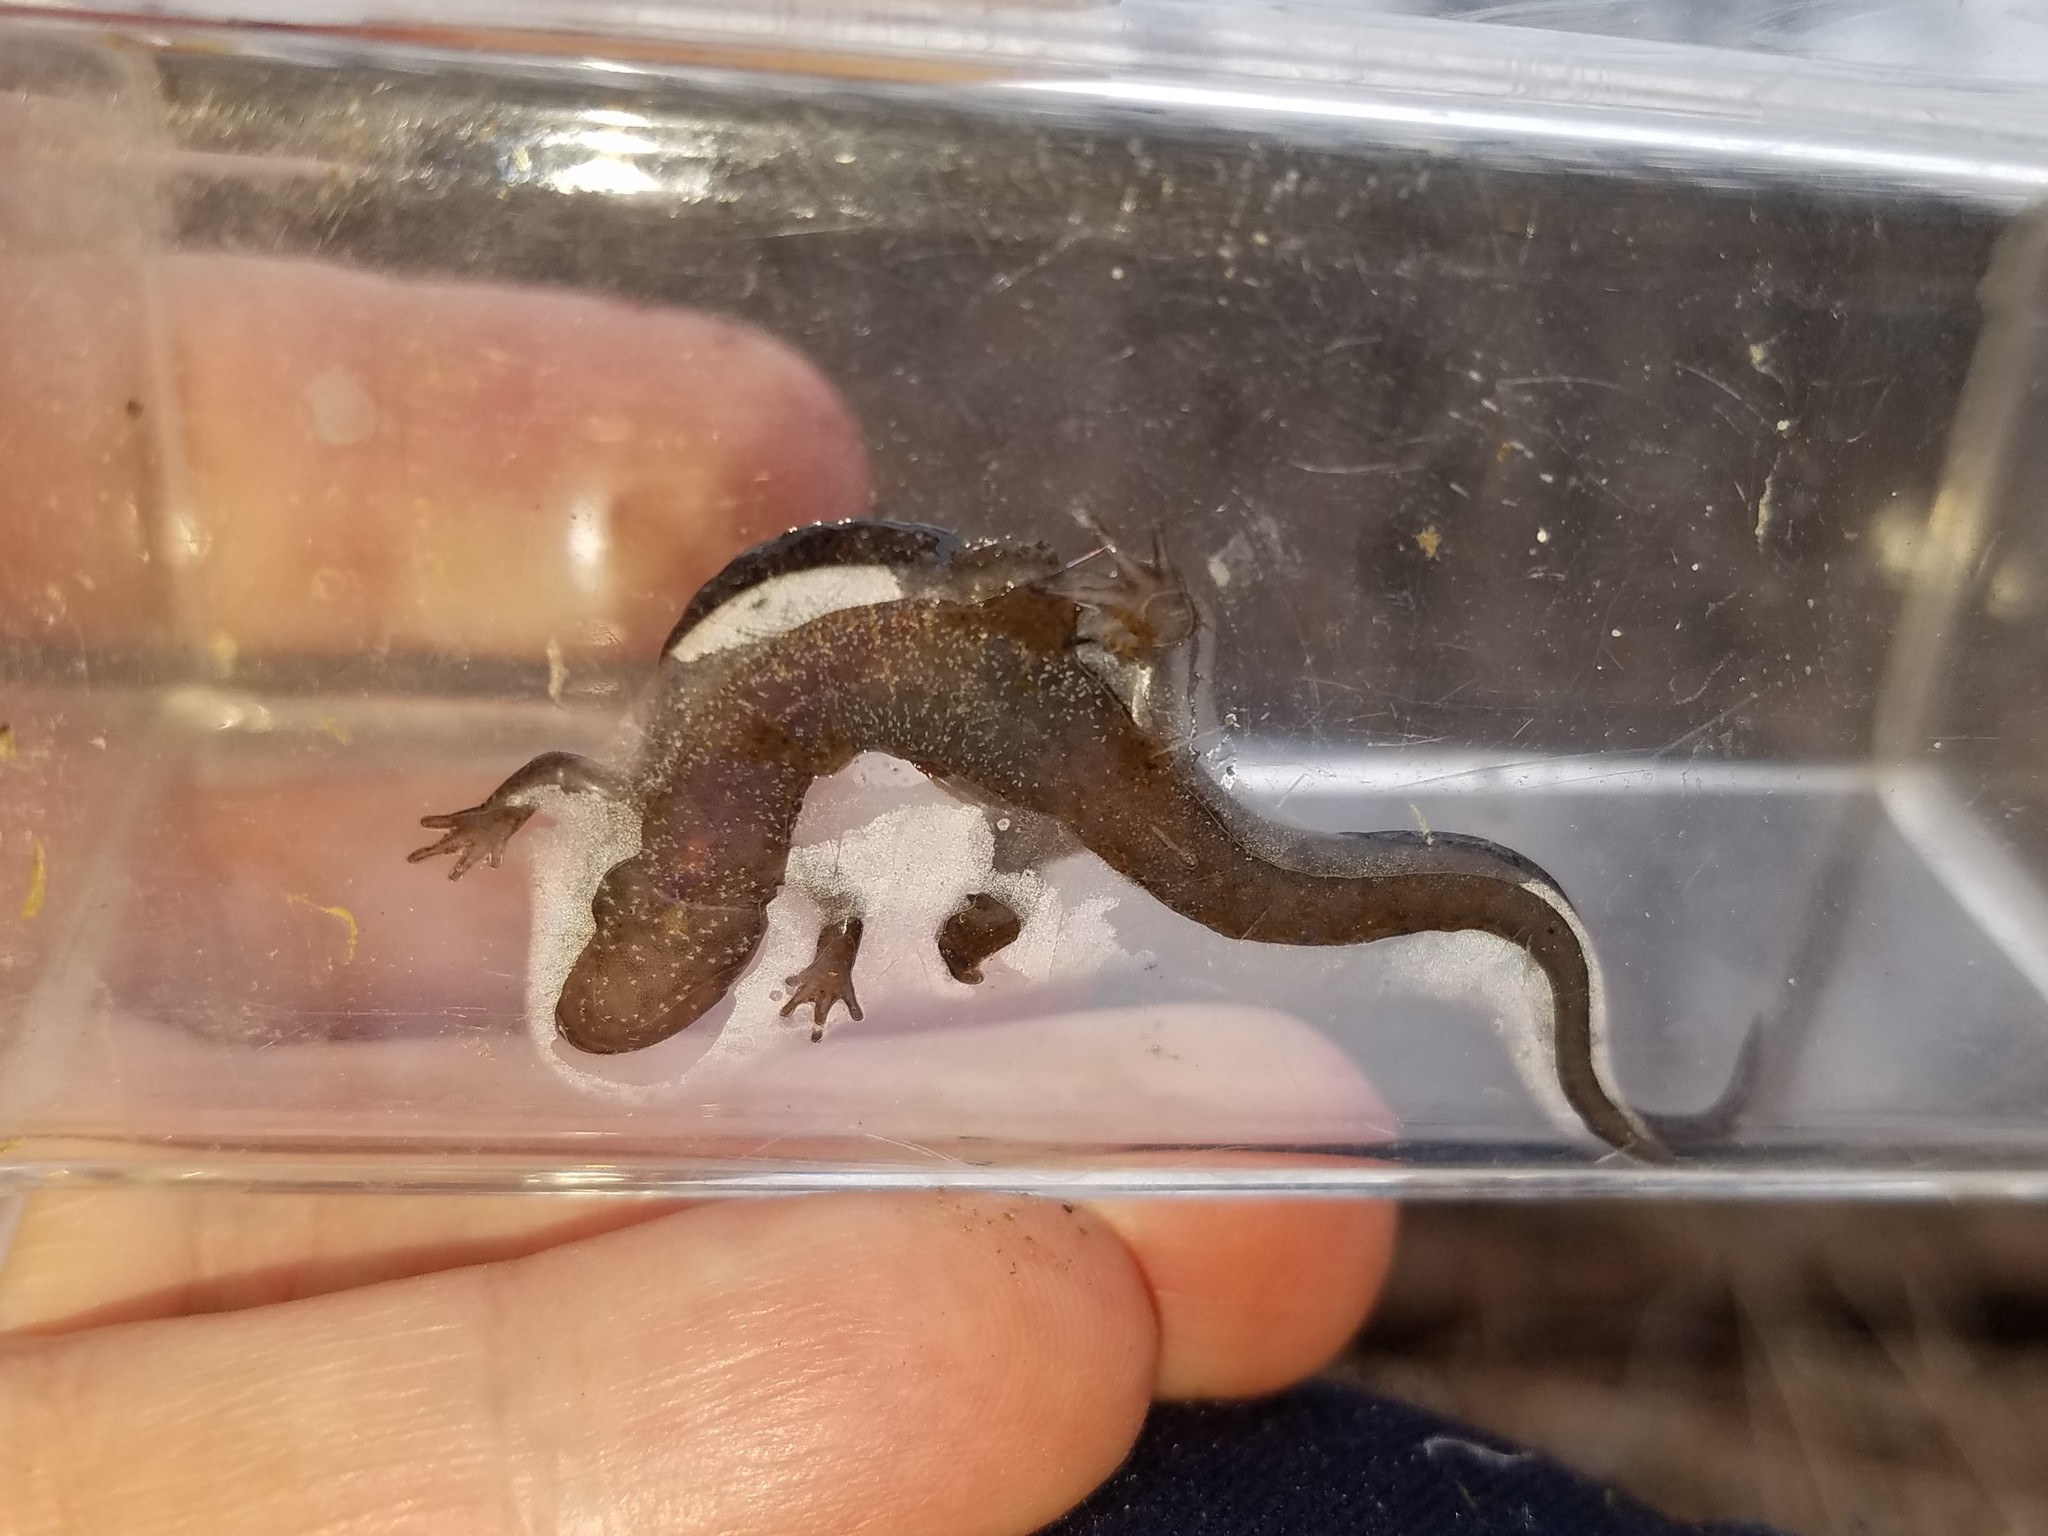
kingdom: Animalia
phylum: Chordata
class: Amphibia
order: Caudata
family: Plethodontidae
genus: Desmognathus
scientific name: Desmognathus ocoee
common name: Ocoee salamander
